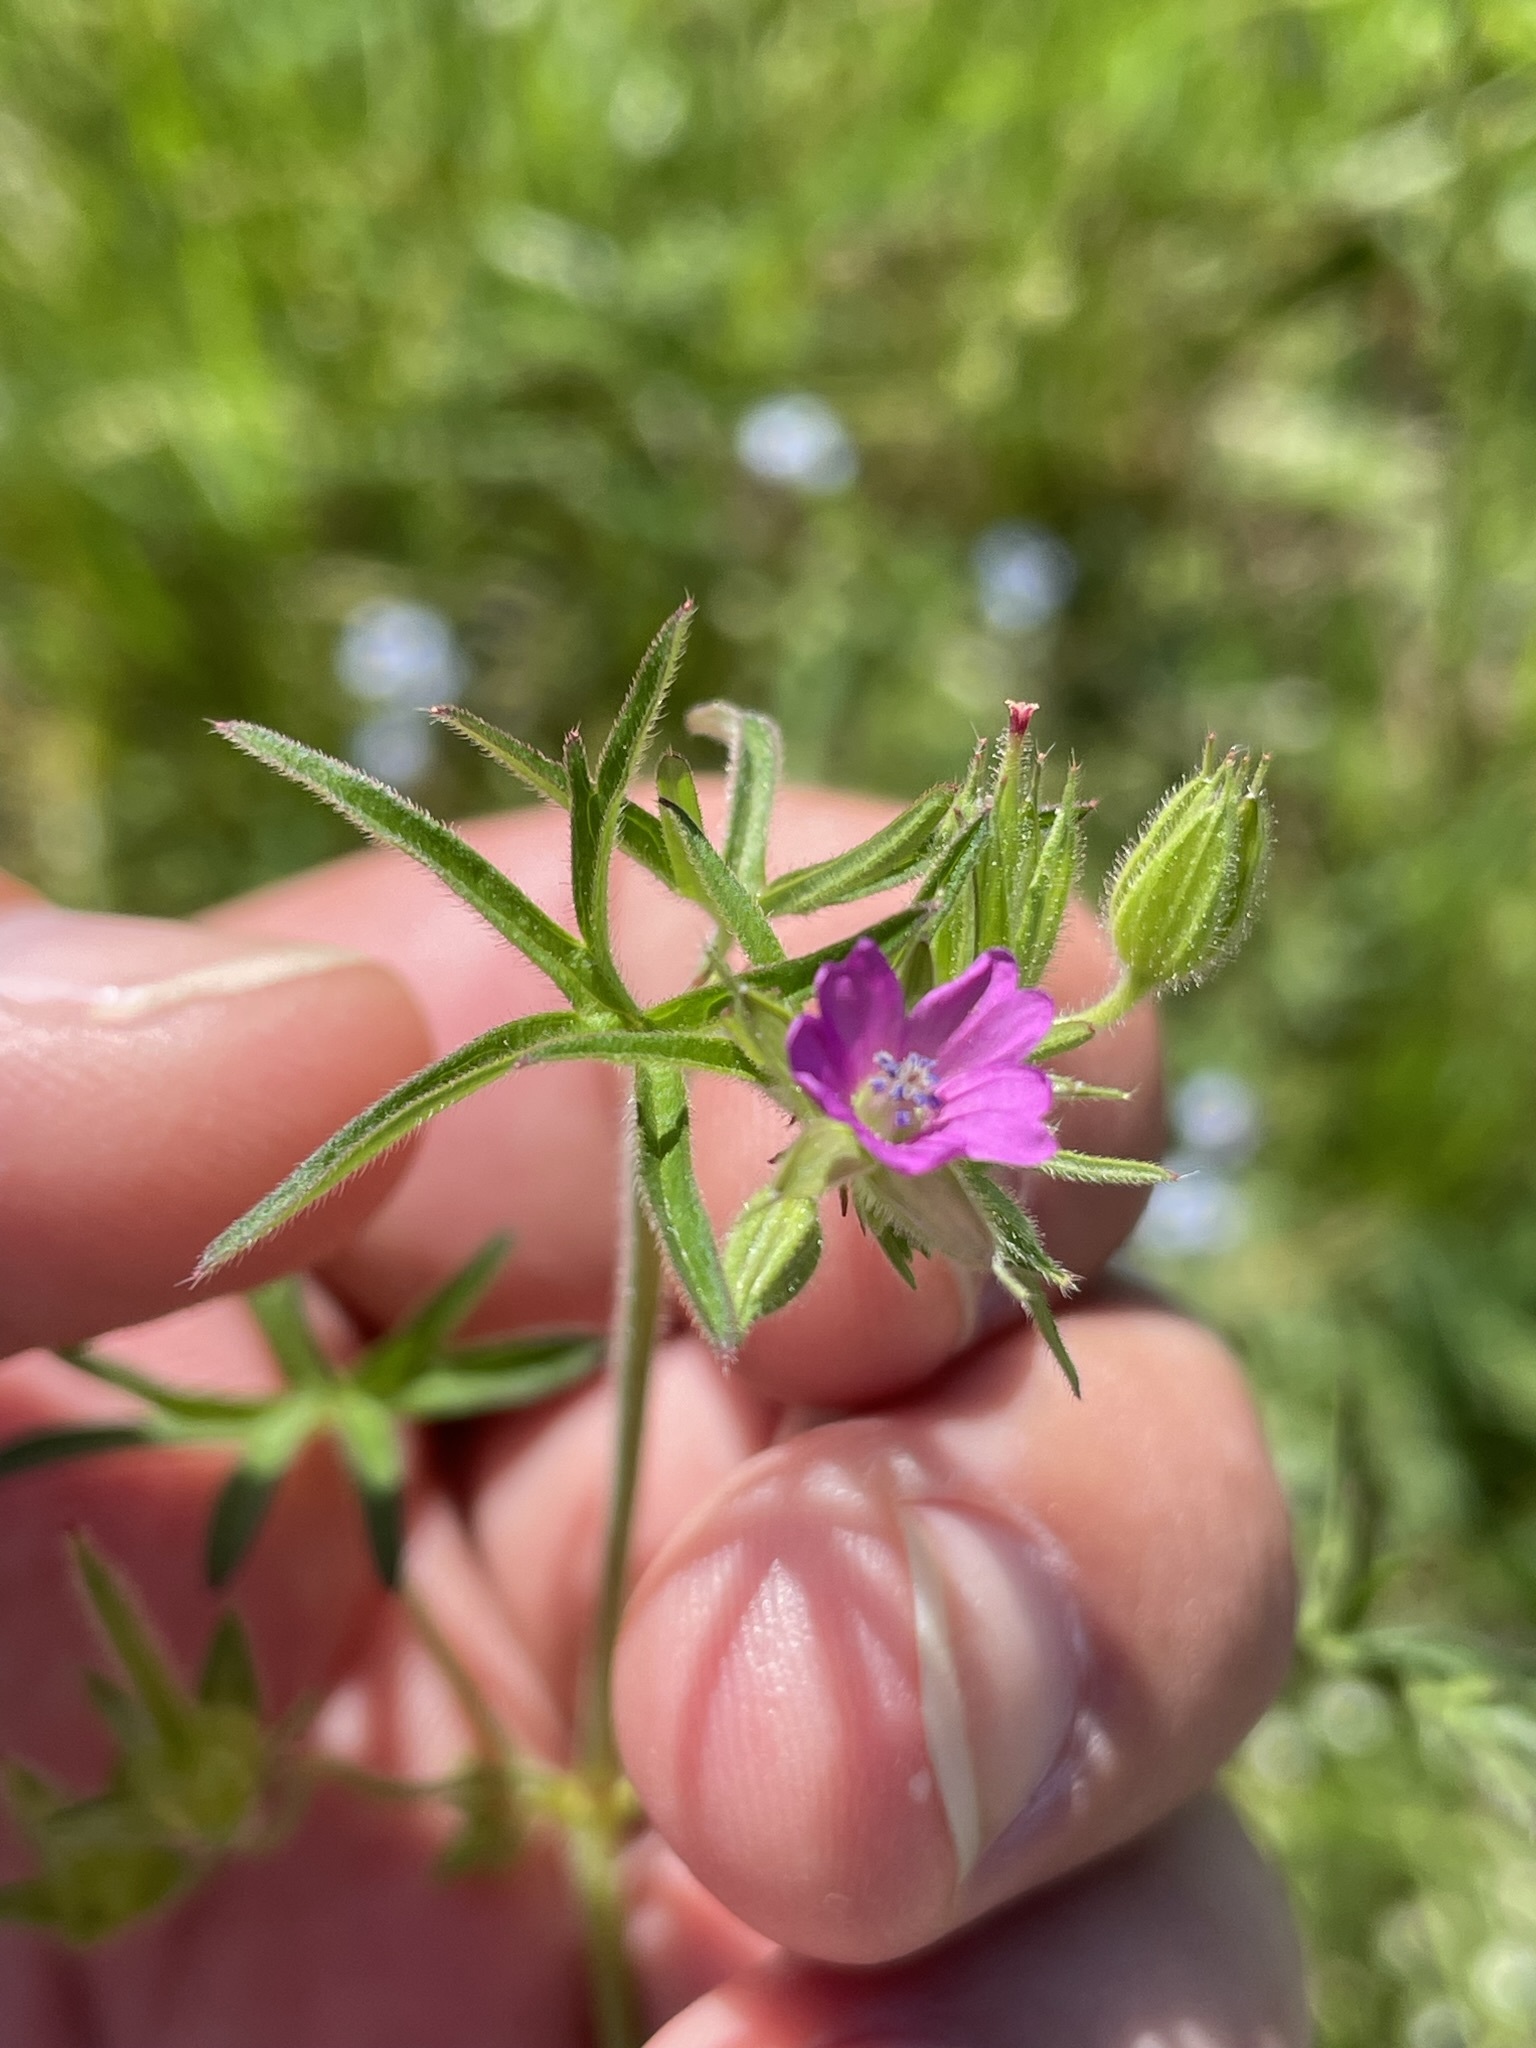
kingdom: Plantae
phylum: Tracheophyta
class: Magnoliopsida
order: Geraniales
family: Geraniaceae
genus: Geranium
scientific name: Geranium dissectum
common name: Cut-leaved crane's-bill
